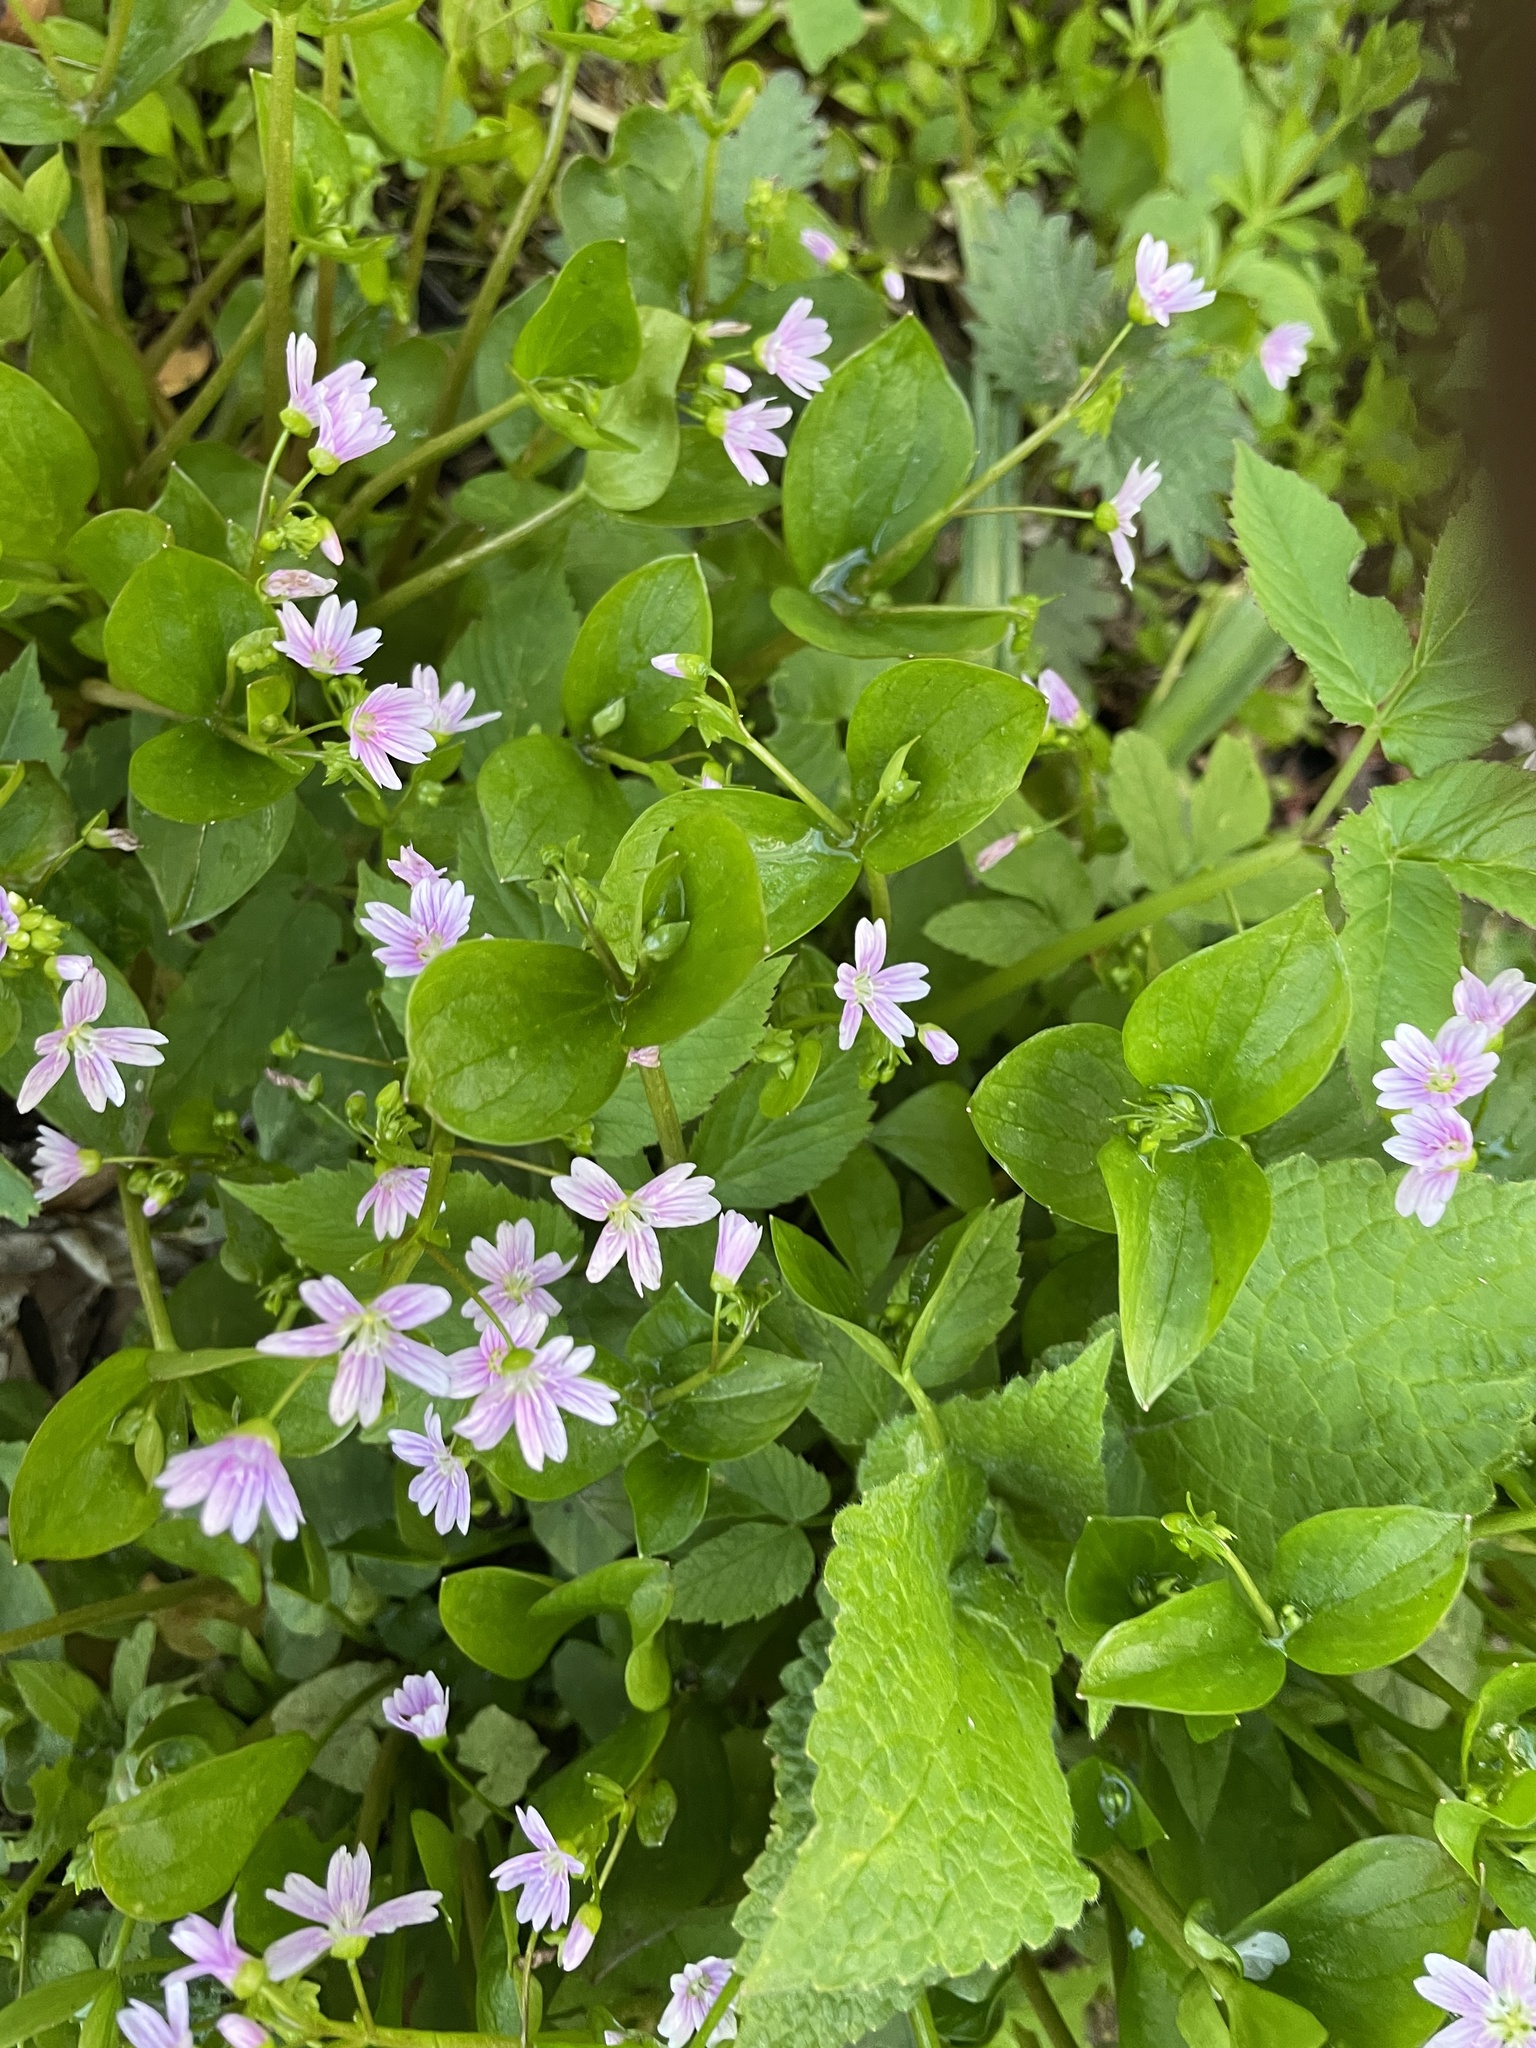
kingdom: Plantae
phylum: Tracheophyta
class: Magnoliopsida
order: Caryophyllales
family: Montiaceae
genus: Claytonia
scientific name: Claytonia sibirica
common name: Pink purslane
